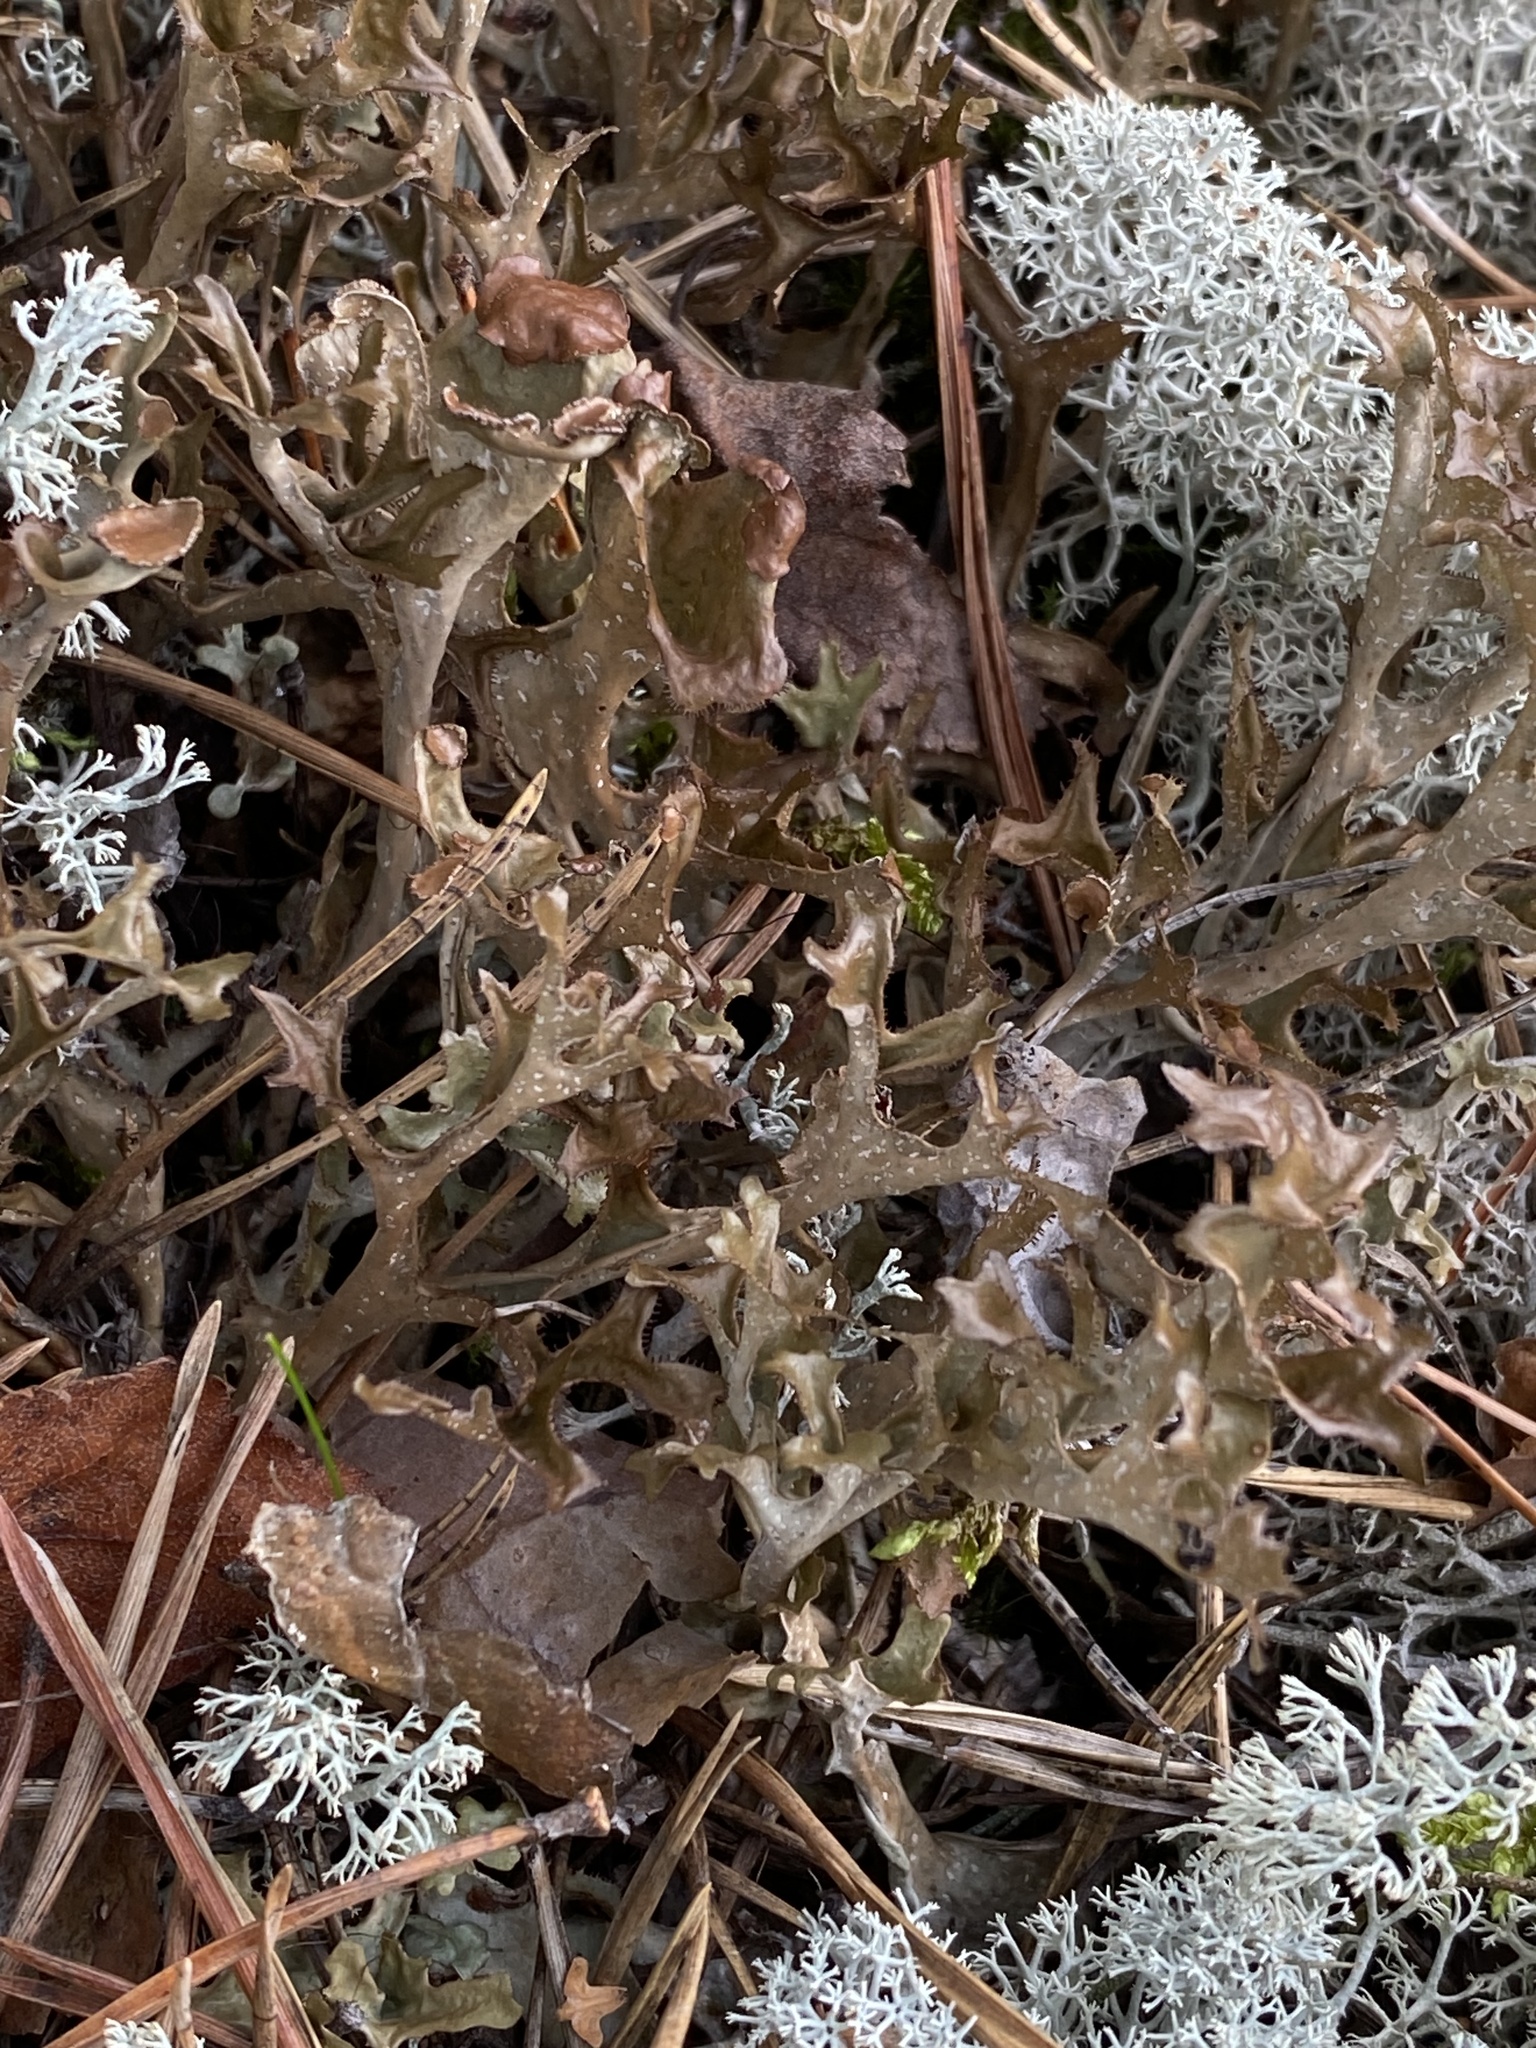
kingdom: Fungi
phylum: Ascomycota
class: Lecanoromycetes
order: Lecanorales
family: Parmeliaceae
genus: Cetraria
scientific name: Cetraria islandica
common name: Iceland lichen
